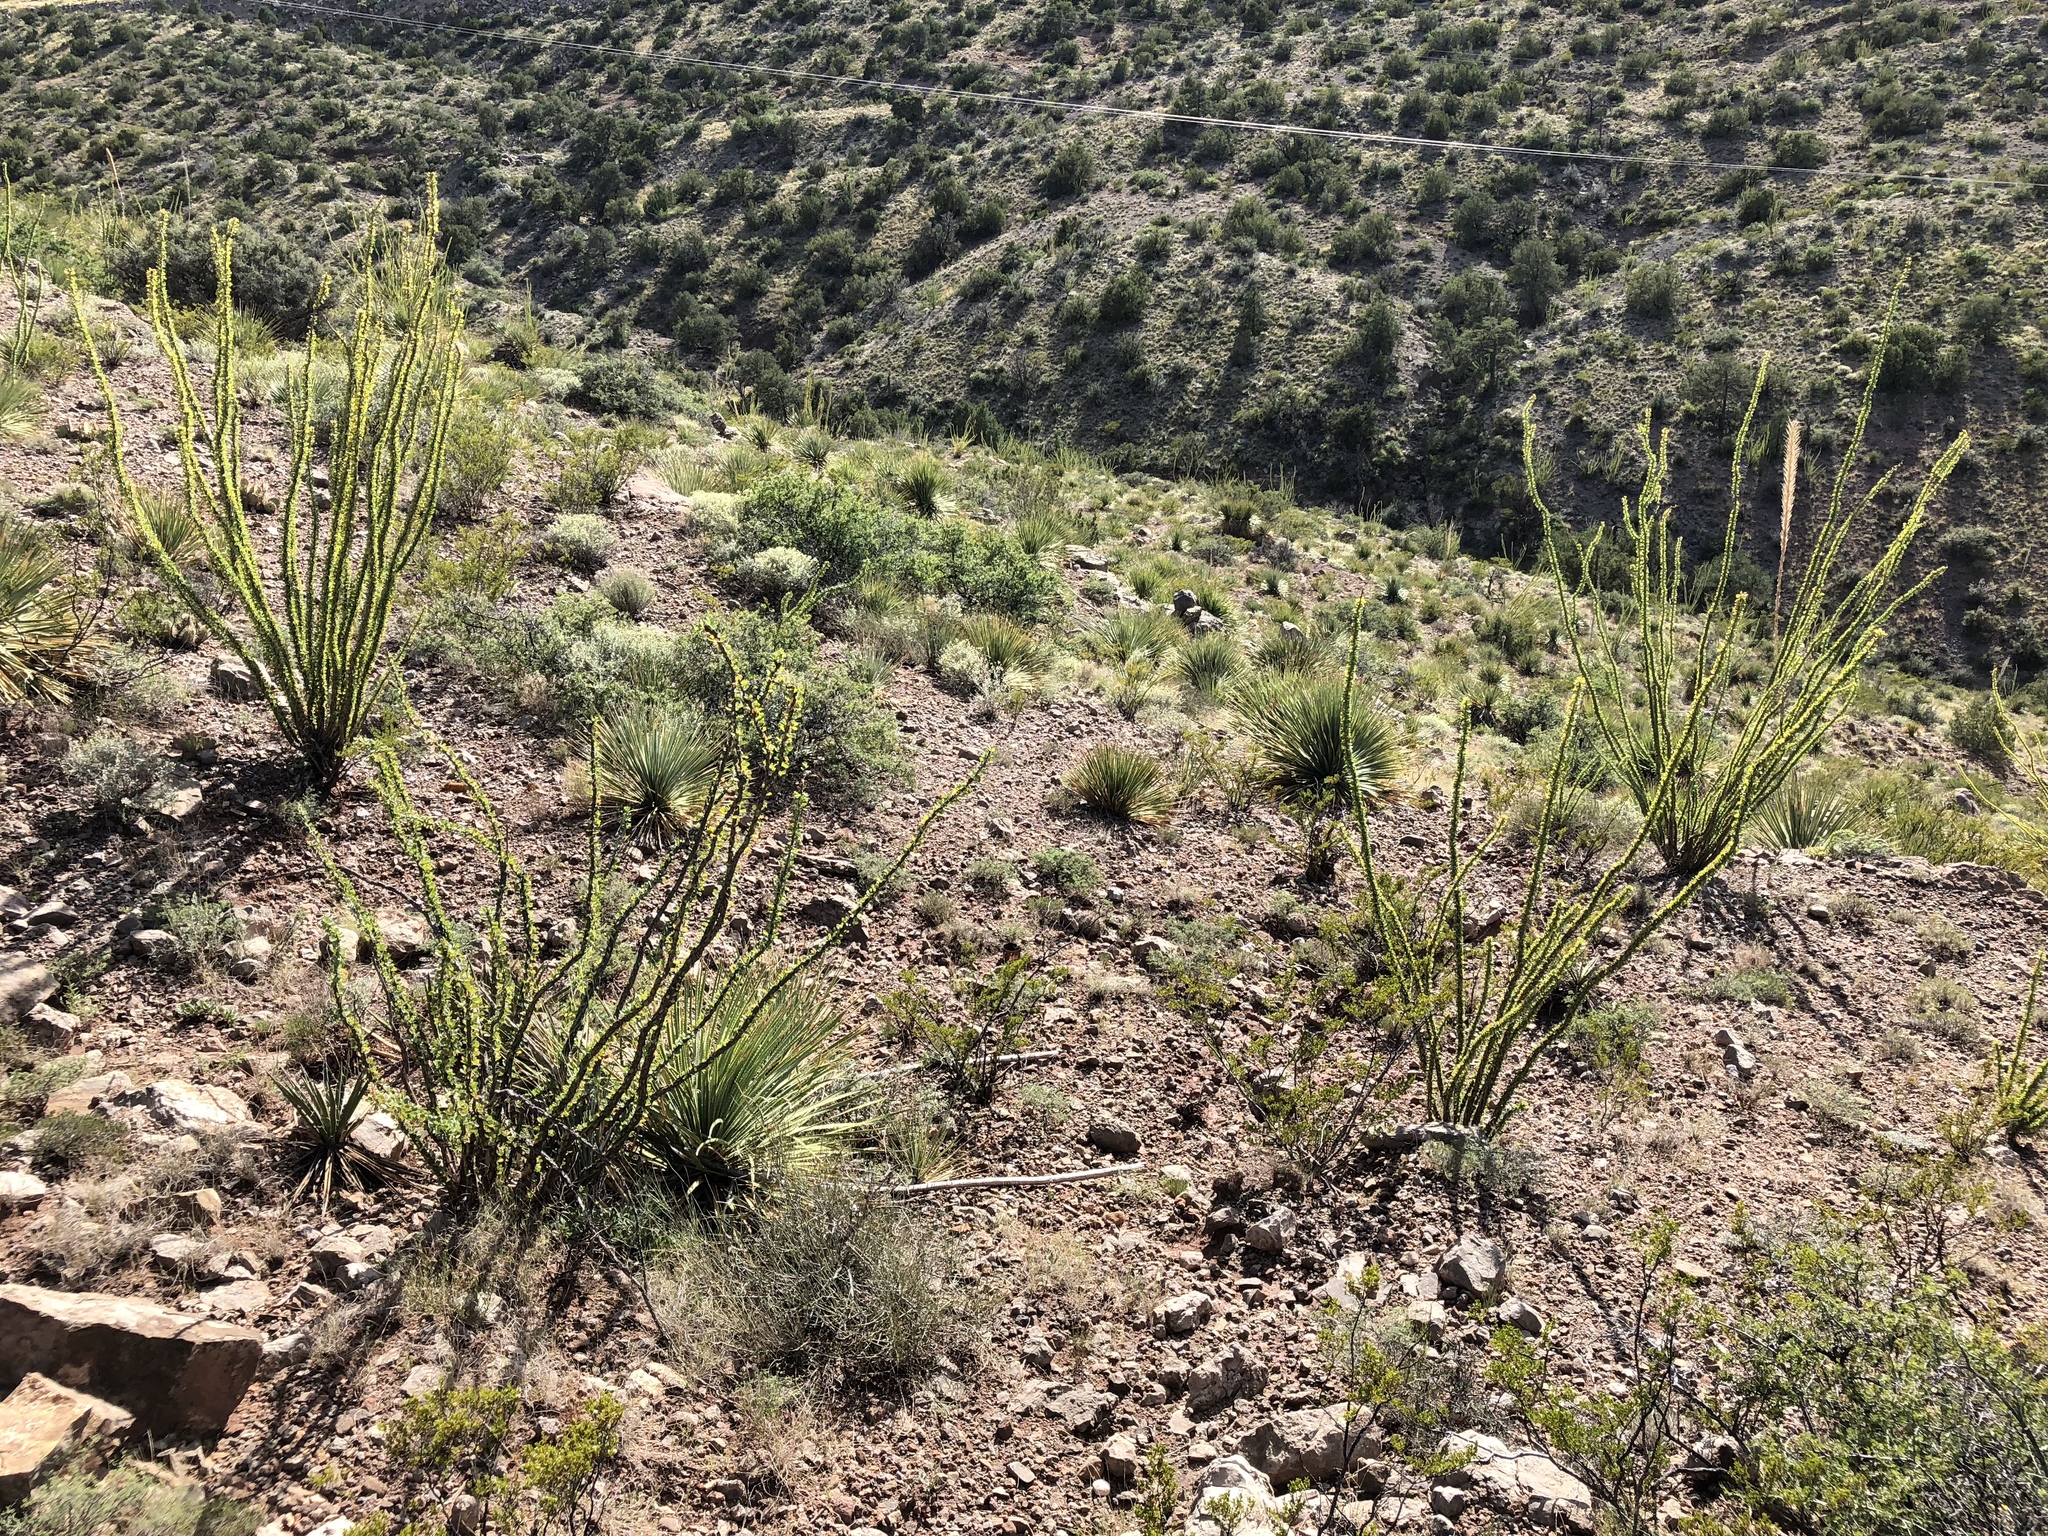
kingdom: Plantae
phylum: Tracheophyta
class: Magnoliopsida
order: Ericales
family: Fouquieriaceae
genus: Fouquieria
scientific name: Fouquieria splendens
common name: Vine-cactus
